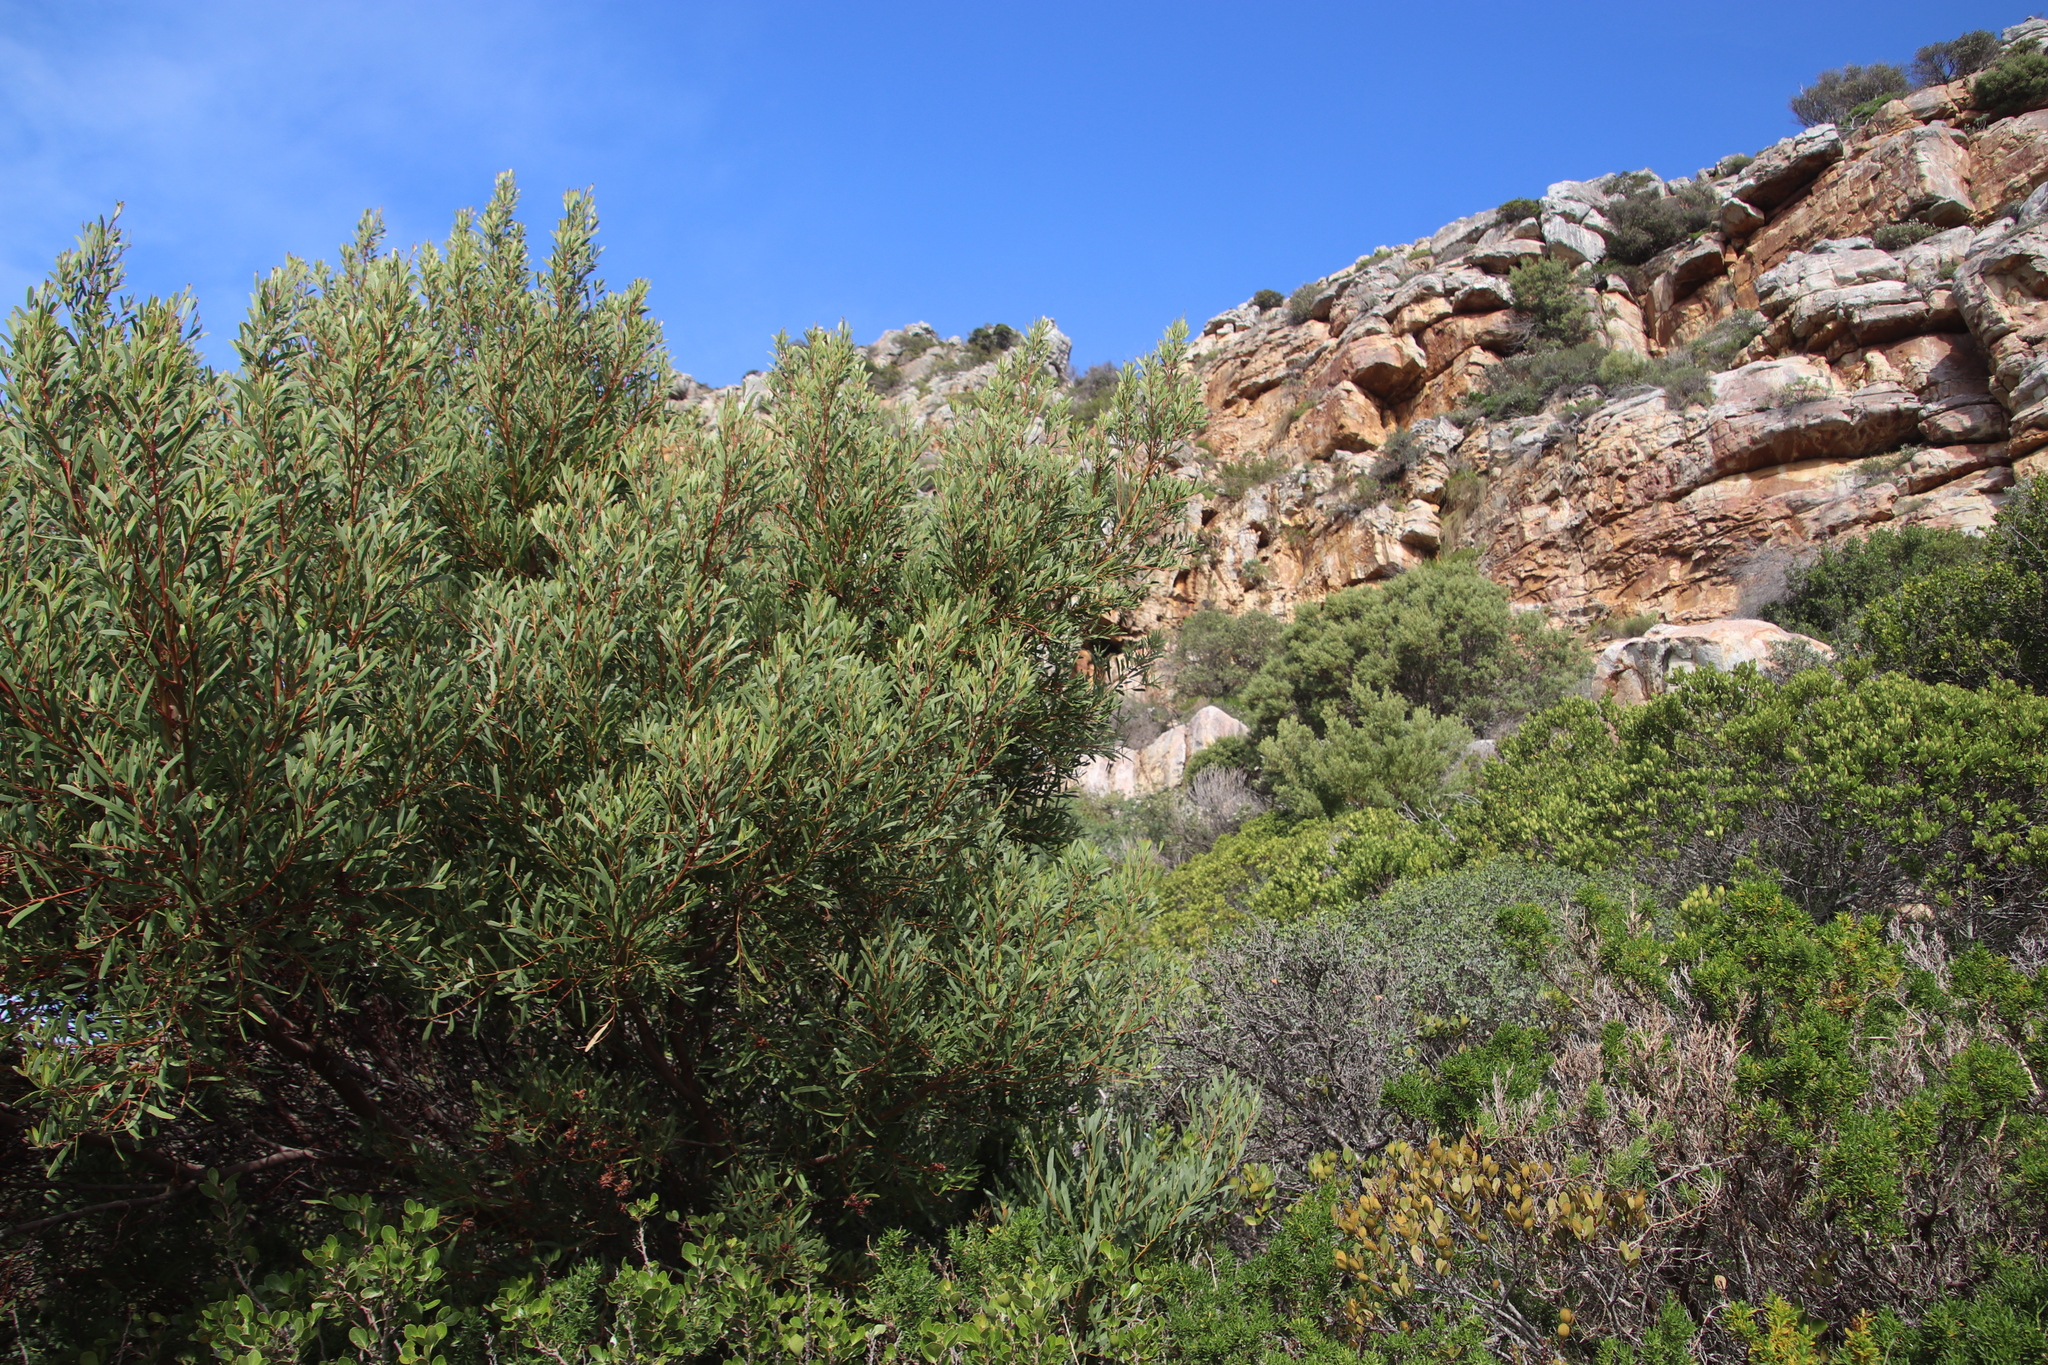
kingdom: Plantae
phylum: Tracheophyta
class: Magnoliopsida
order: Fabales
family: Fabaceae
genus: Acacia
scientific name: Acacia cyclops
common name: Coastal wattle
